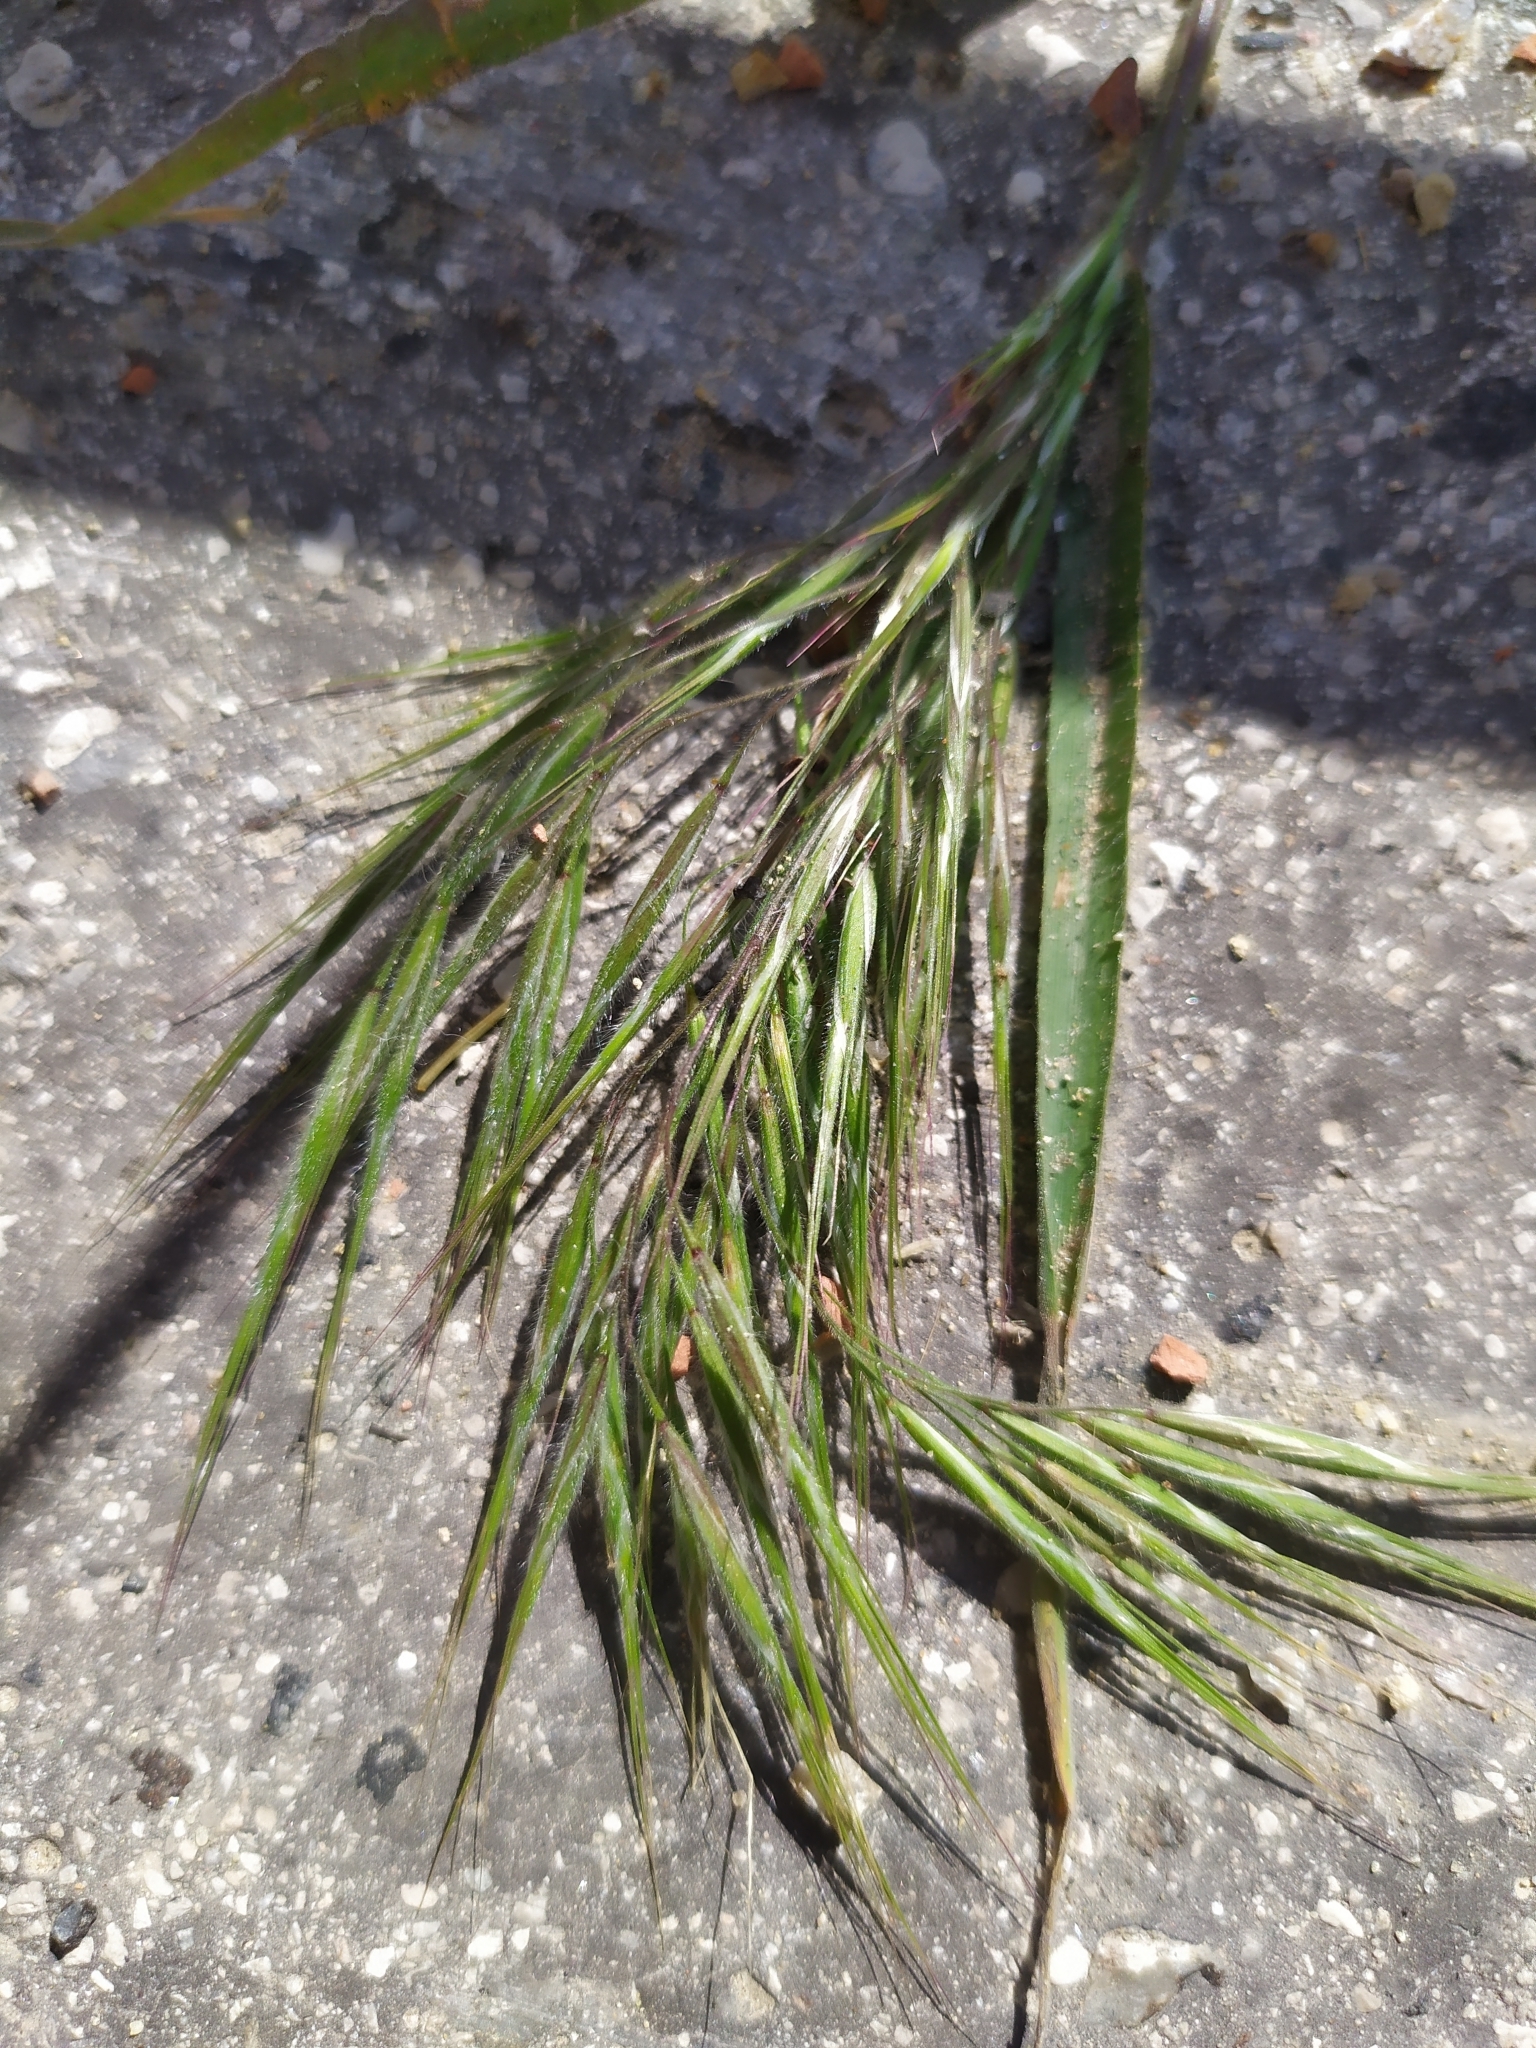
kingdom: Plantae
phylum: Tracheophyta
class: Liliopsida
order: Poales
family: Poaceae
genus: Bromus
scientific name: Bromus tectorum
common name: Cheatgrass
